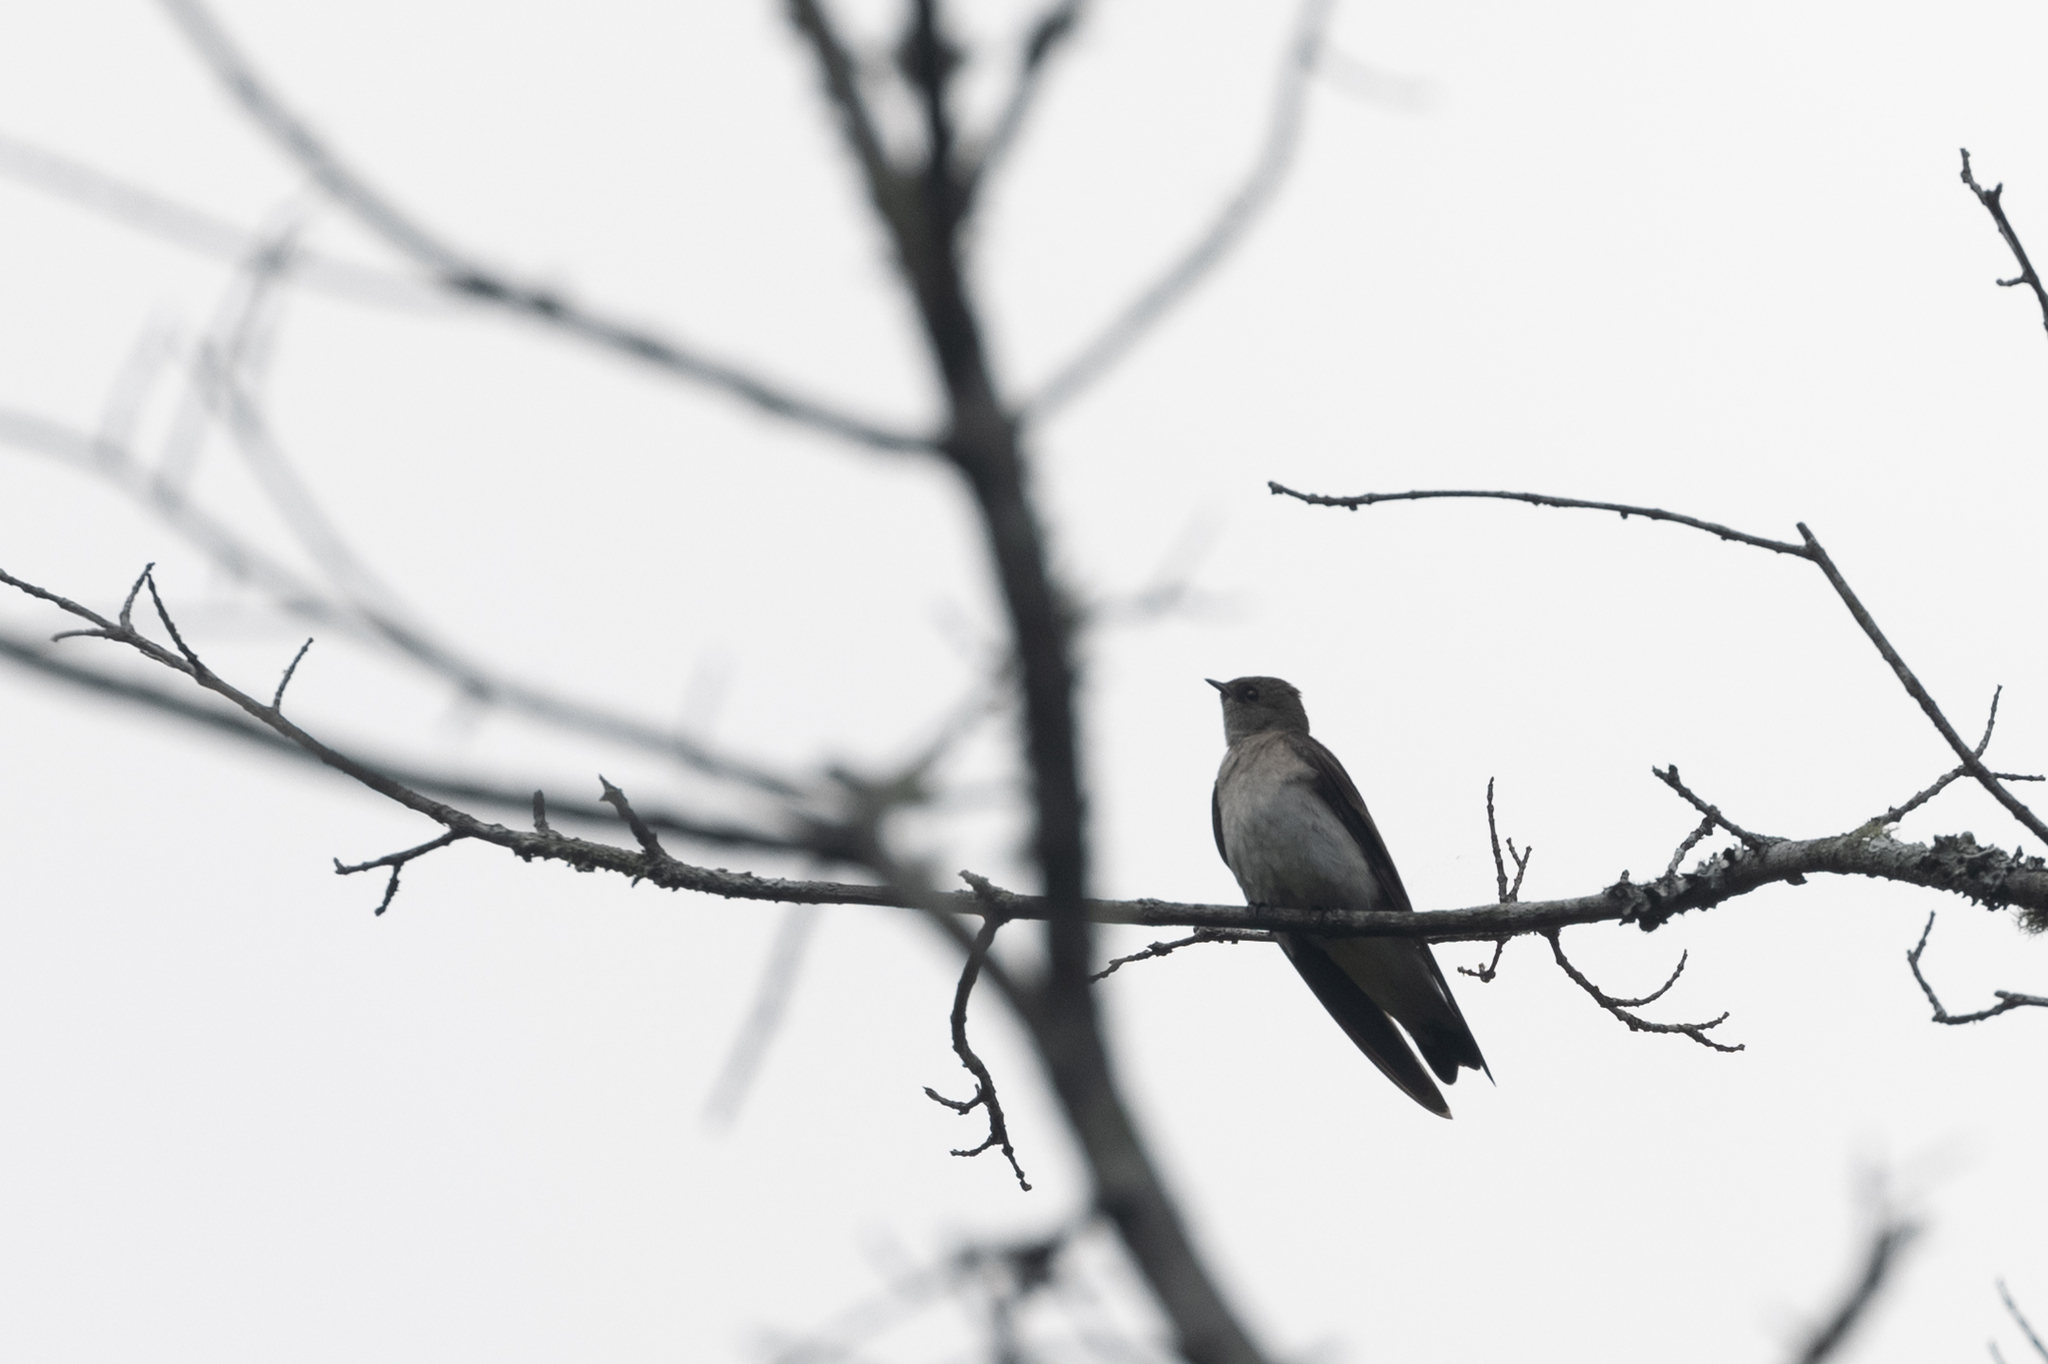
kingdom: Animalia
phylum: Chordata
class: Aves
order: Passeriformes
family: Hirundinidae
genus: Stelgidopteryx
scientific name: Stelgidopteryx serripennis
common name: Northern rough-winged swallow
